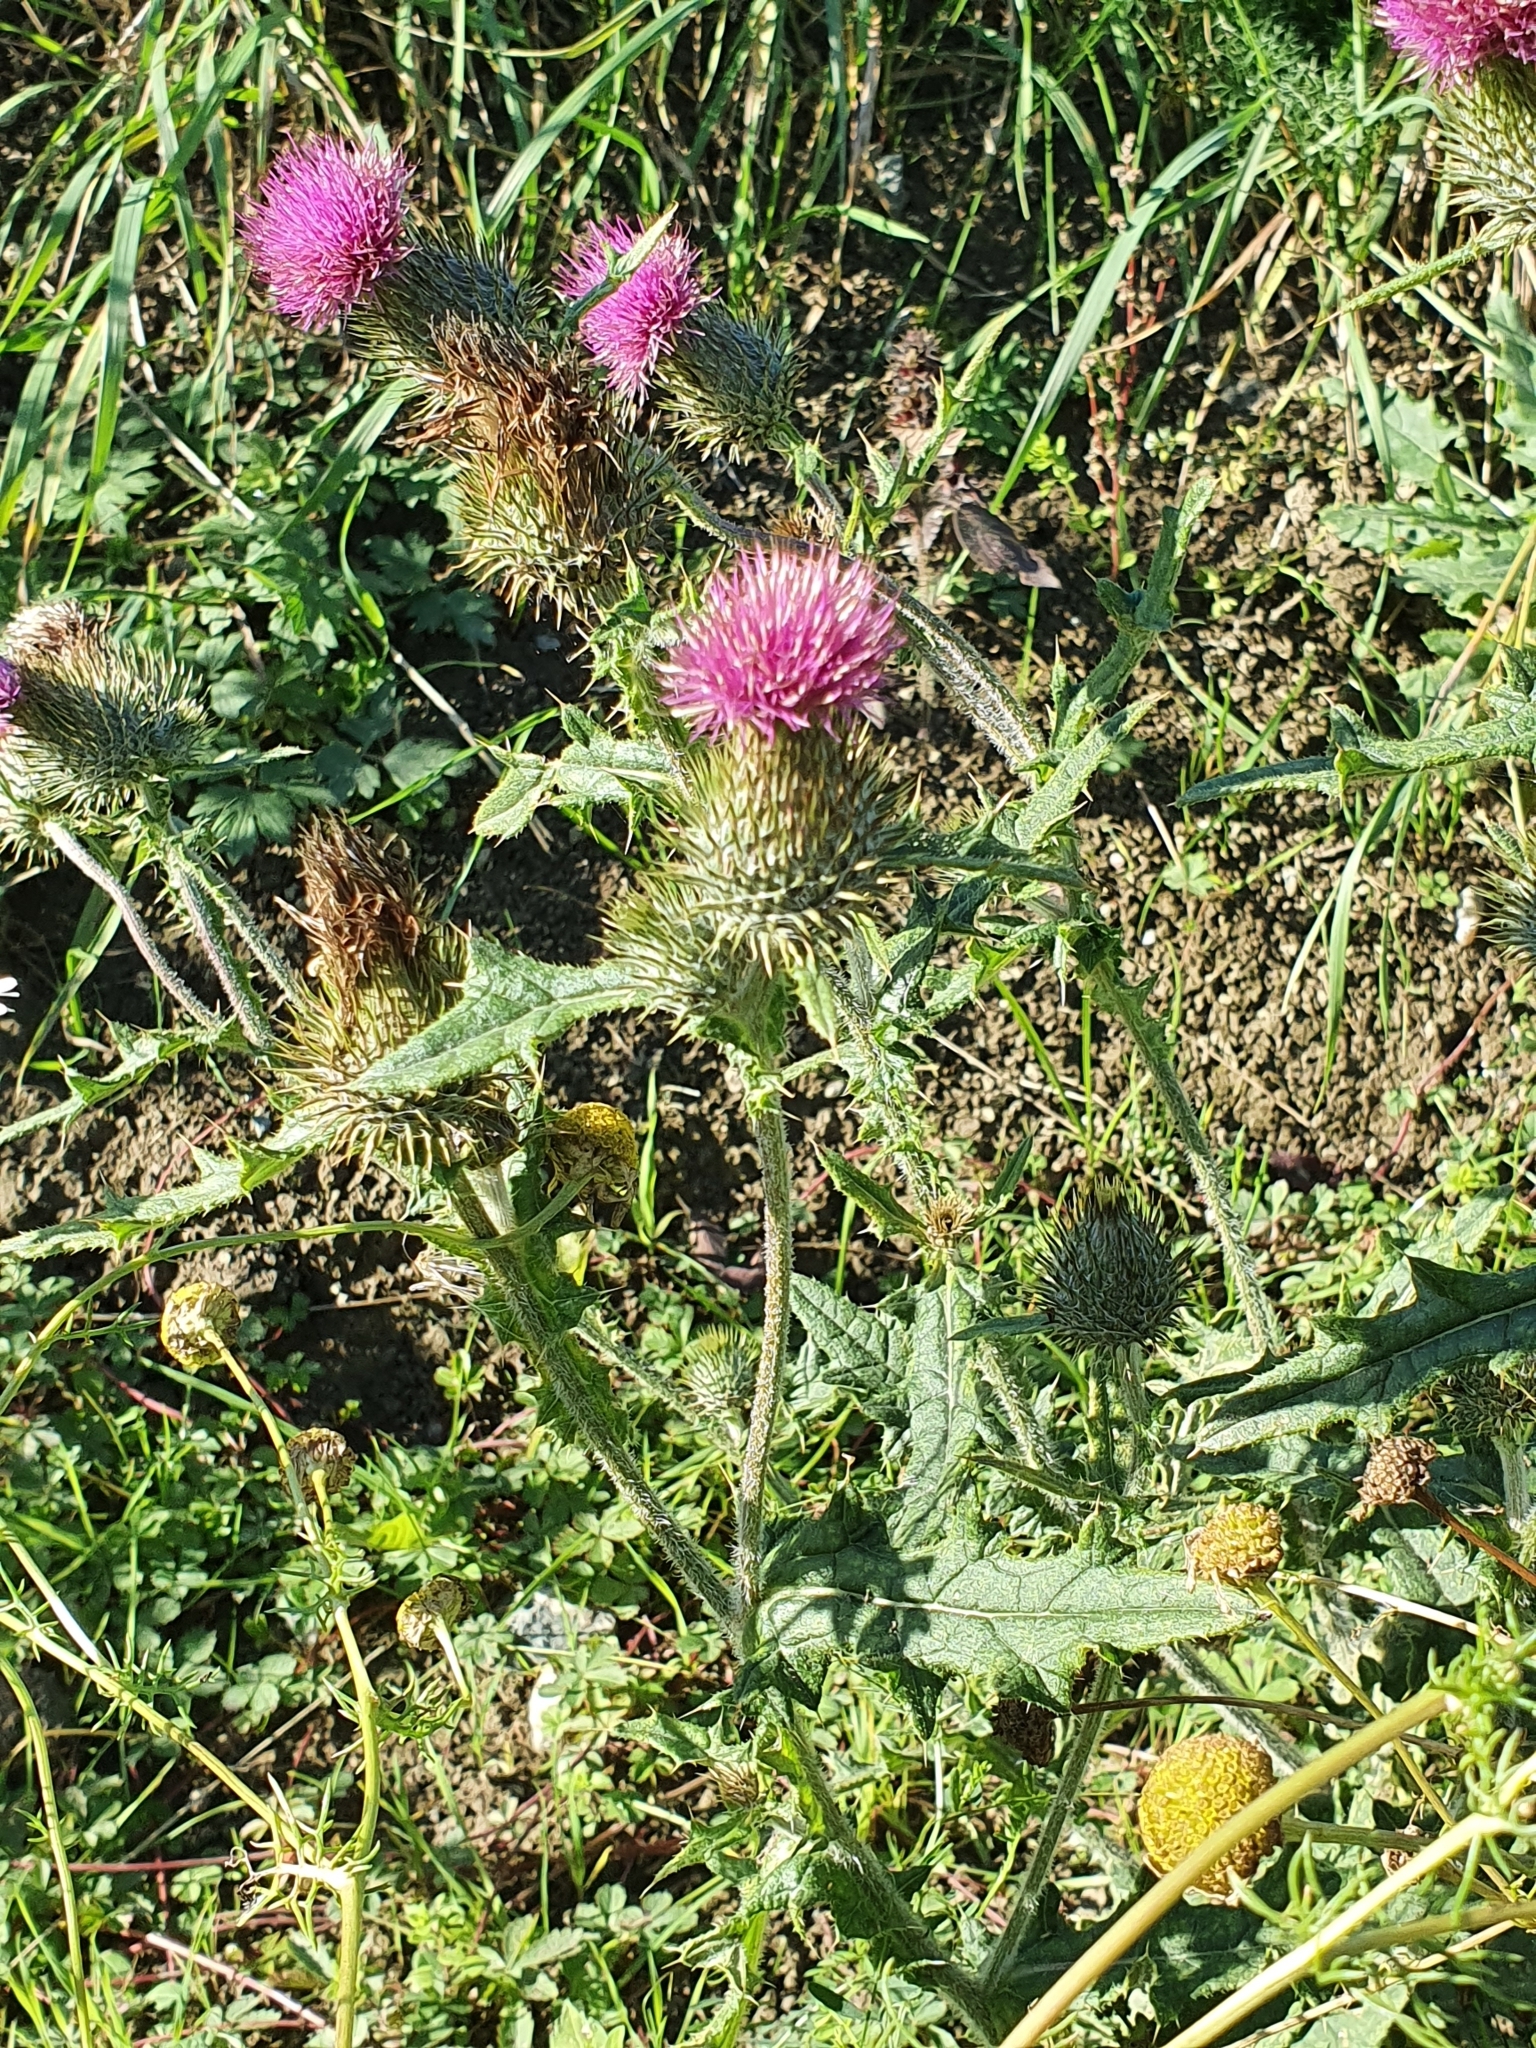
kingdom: Plantae
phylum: Tracheophyta
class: Magnoliopsida
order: Asterales
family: Asteraceae
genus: Cirsium
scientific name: Cirsium vulgare
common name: Bull thistle
